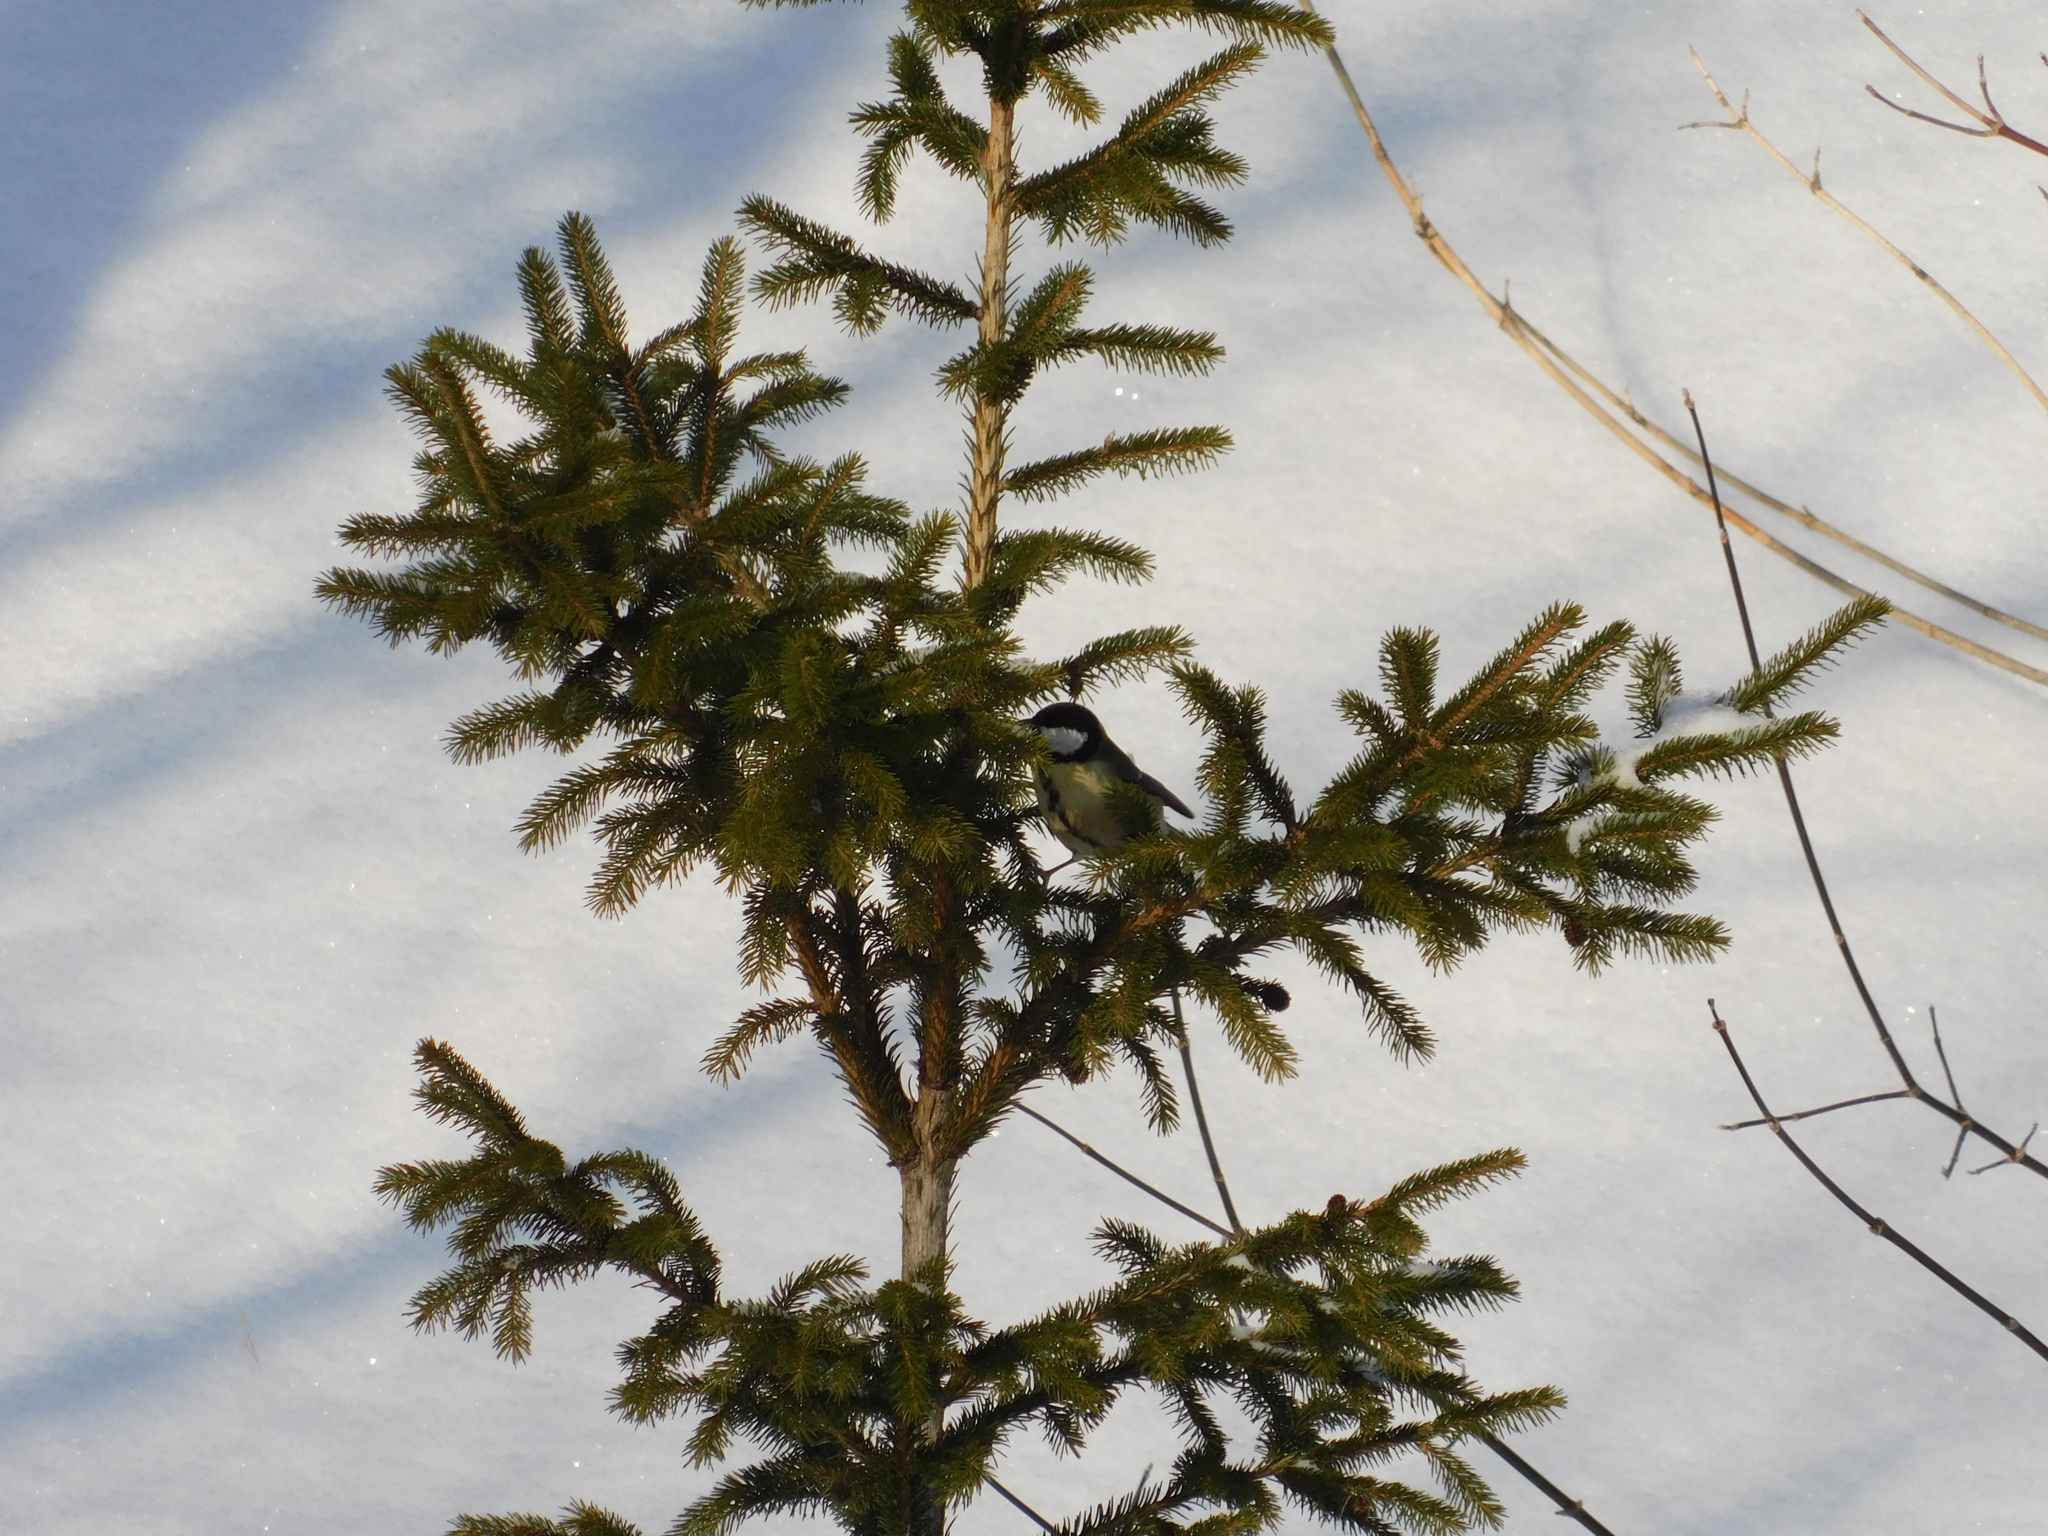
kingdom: Animalia
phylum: Chordata
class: Aves
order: Passeriformes
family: Paridae
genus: Parus
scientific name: Parus major
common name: Great tit
